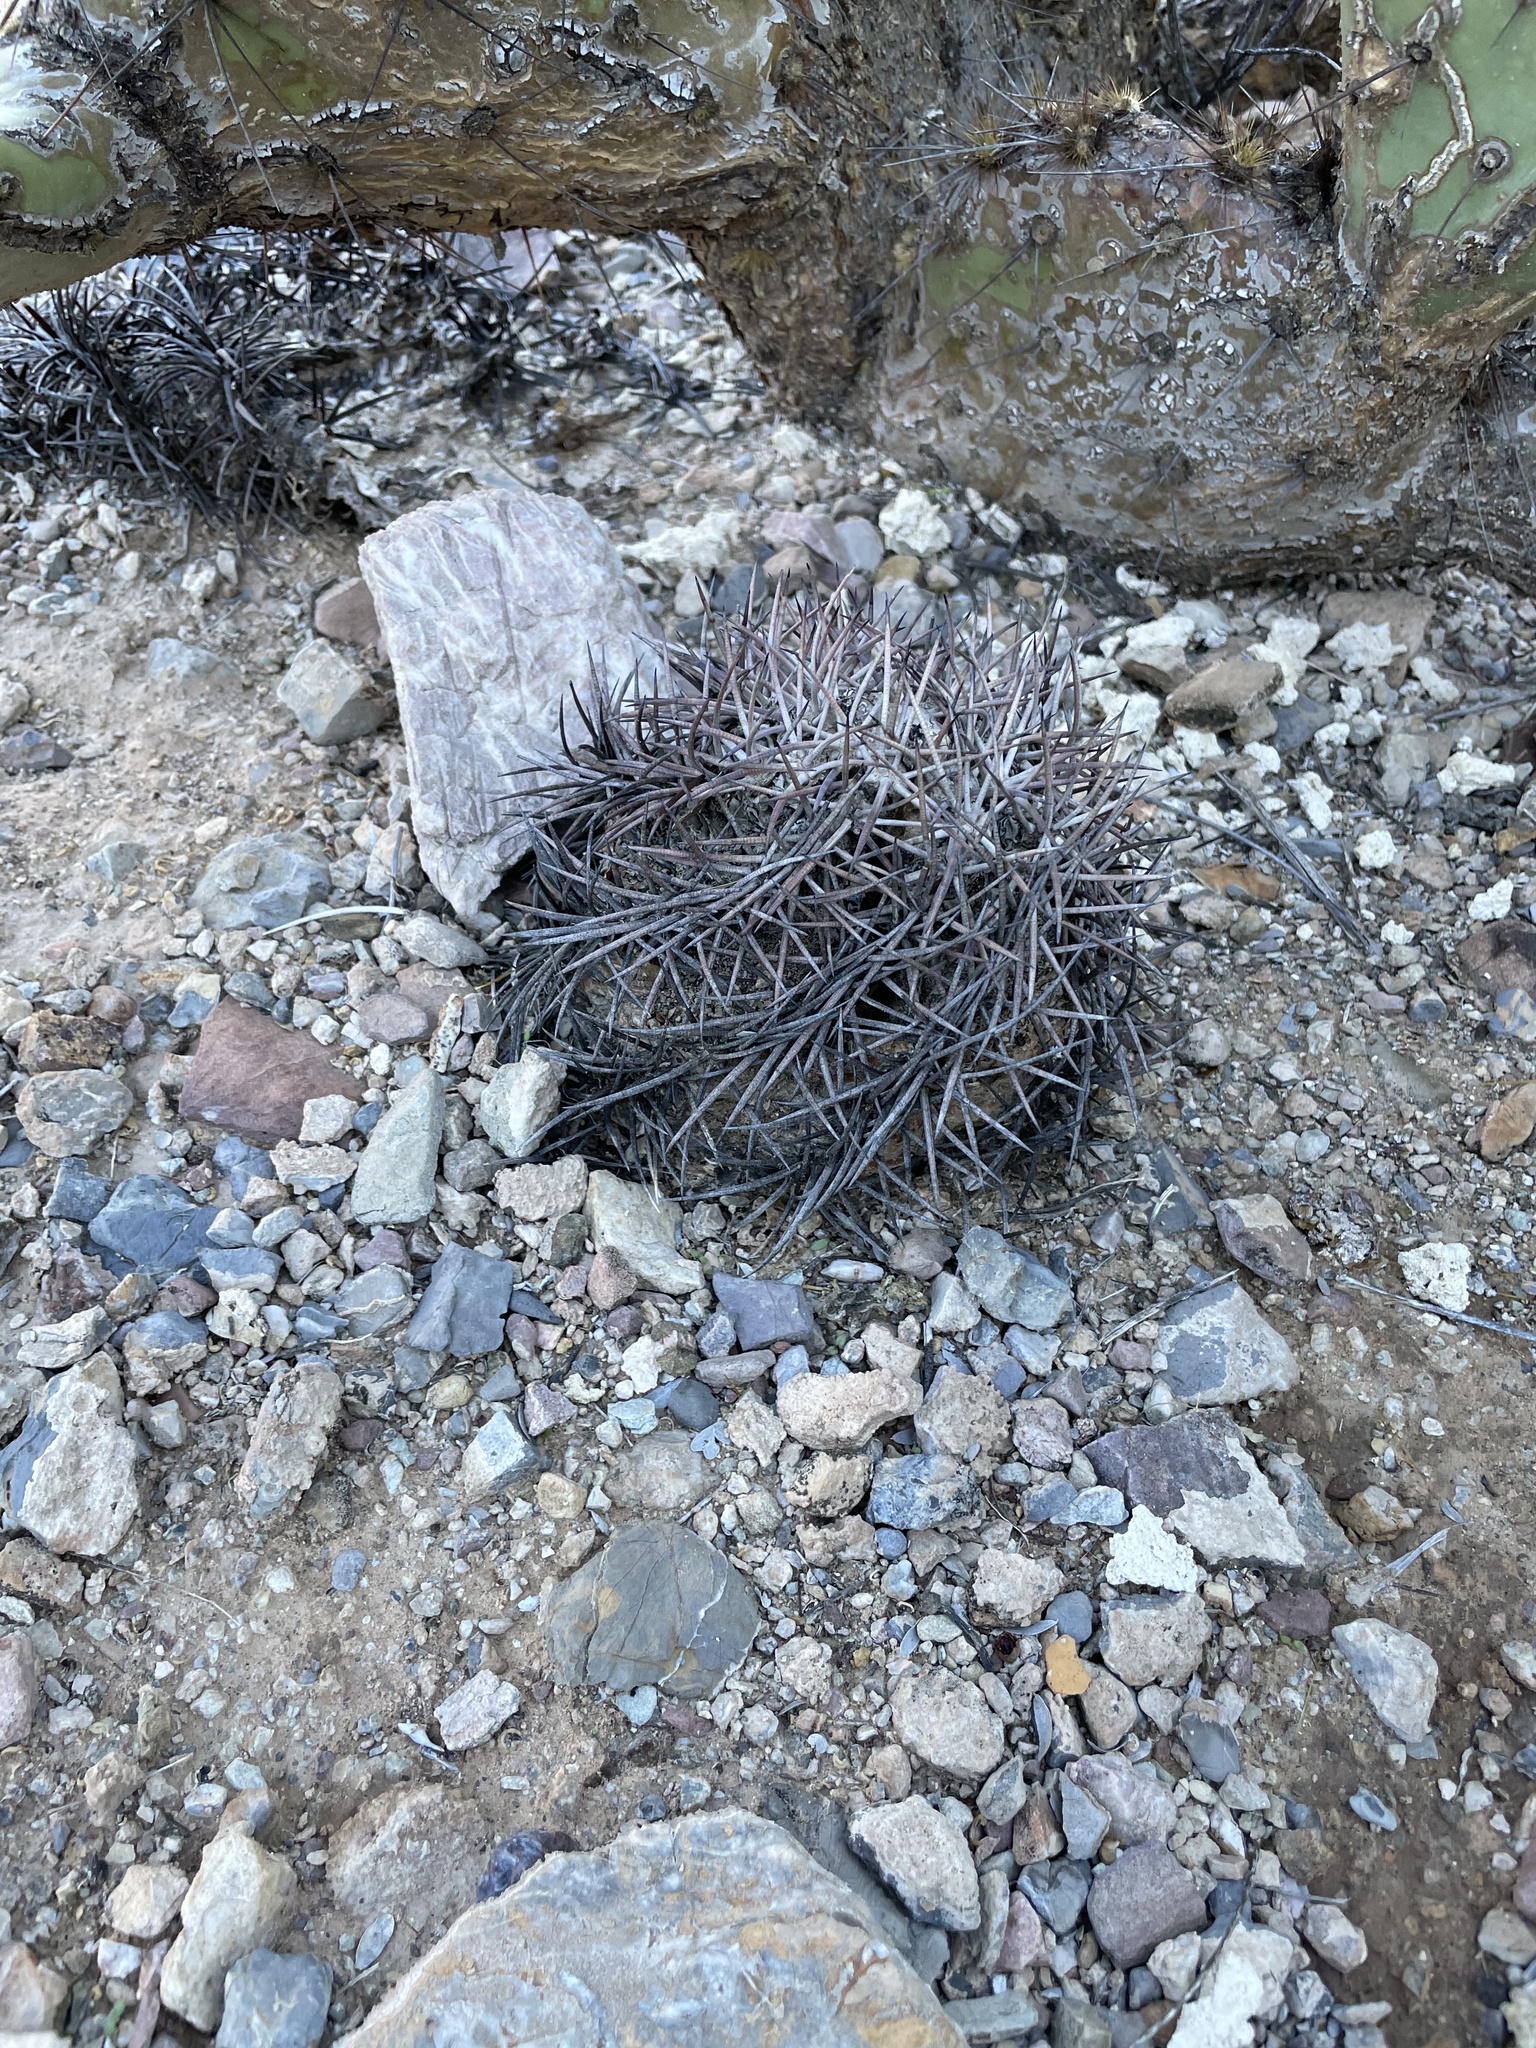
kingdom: Plantae
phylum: Tracheophyta
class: Magnoliopsida
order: Caryophyllales
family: Cactaceae
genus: Echinocactus
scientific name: Echinocactus horizonthalonius
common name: Devilshead
